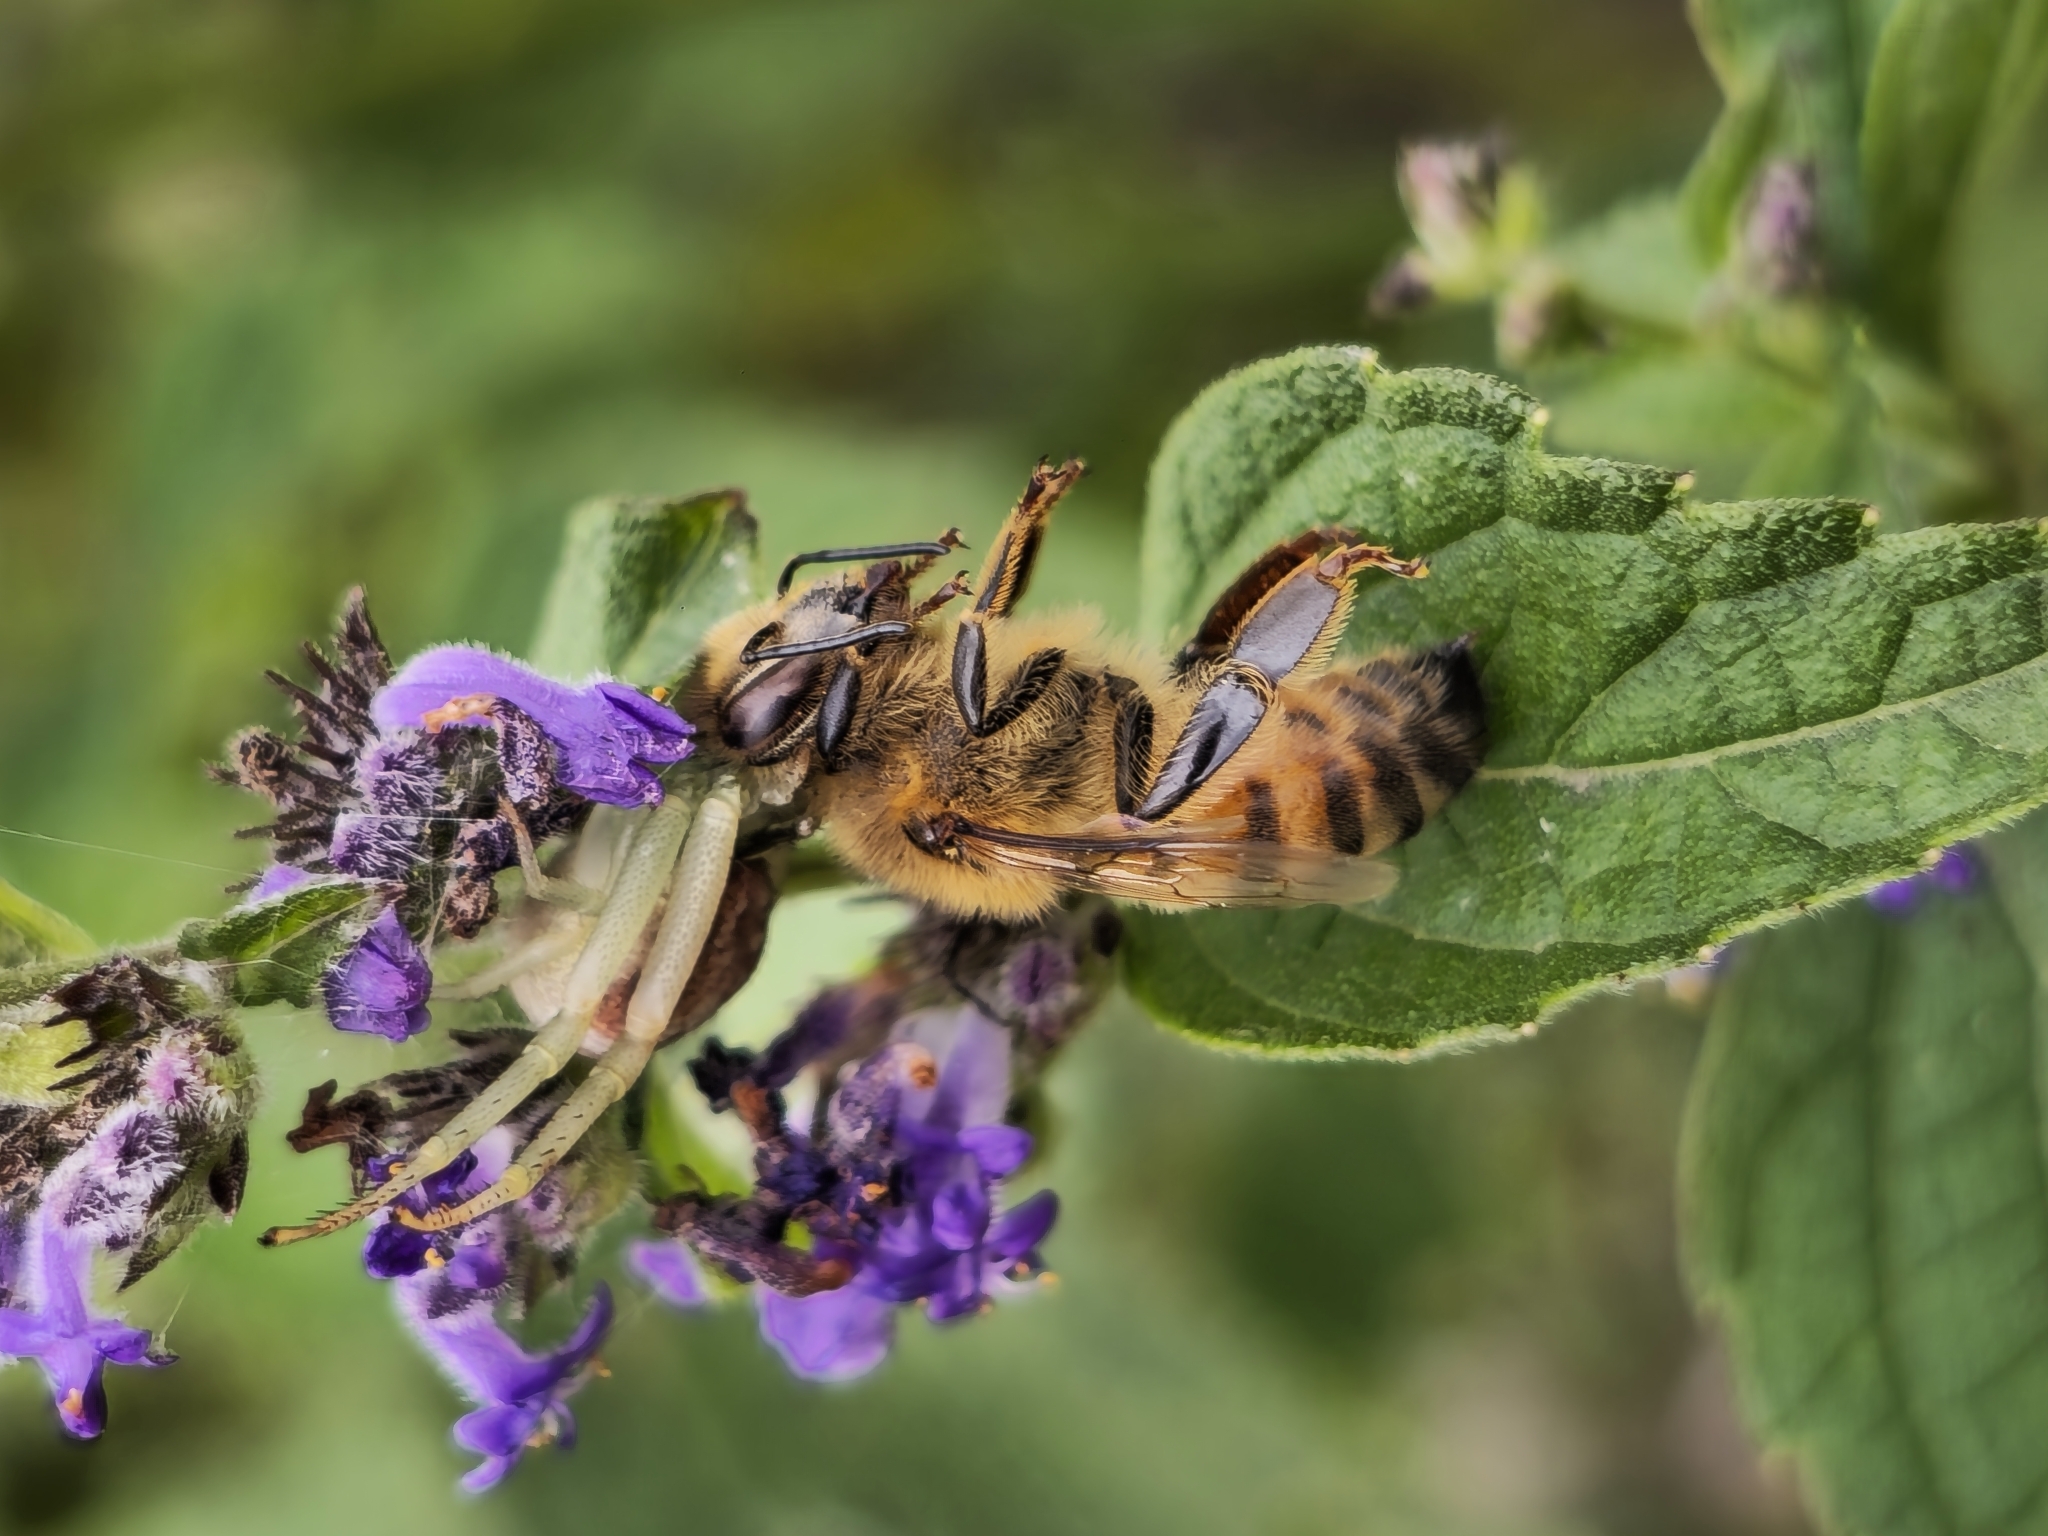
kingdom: Animalia
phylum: Arthropoda
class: Insecta
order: Hymenoptera
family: Apidae
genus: Apis
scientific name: Apis mellifera
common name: Honey bee
